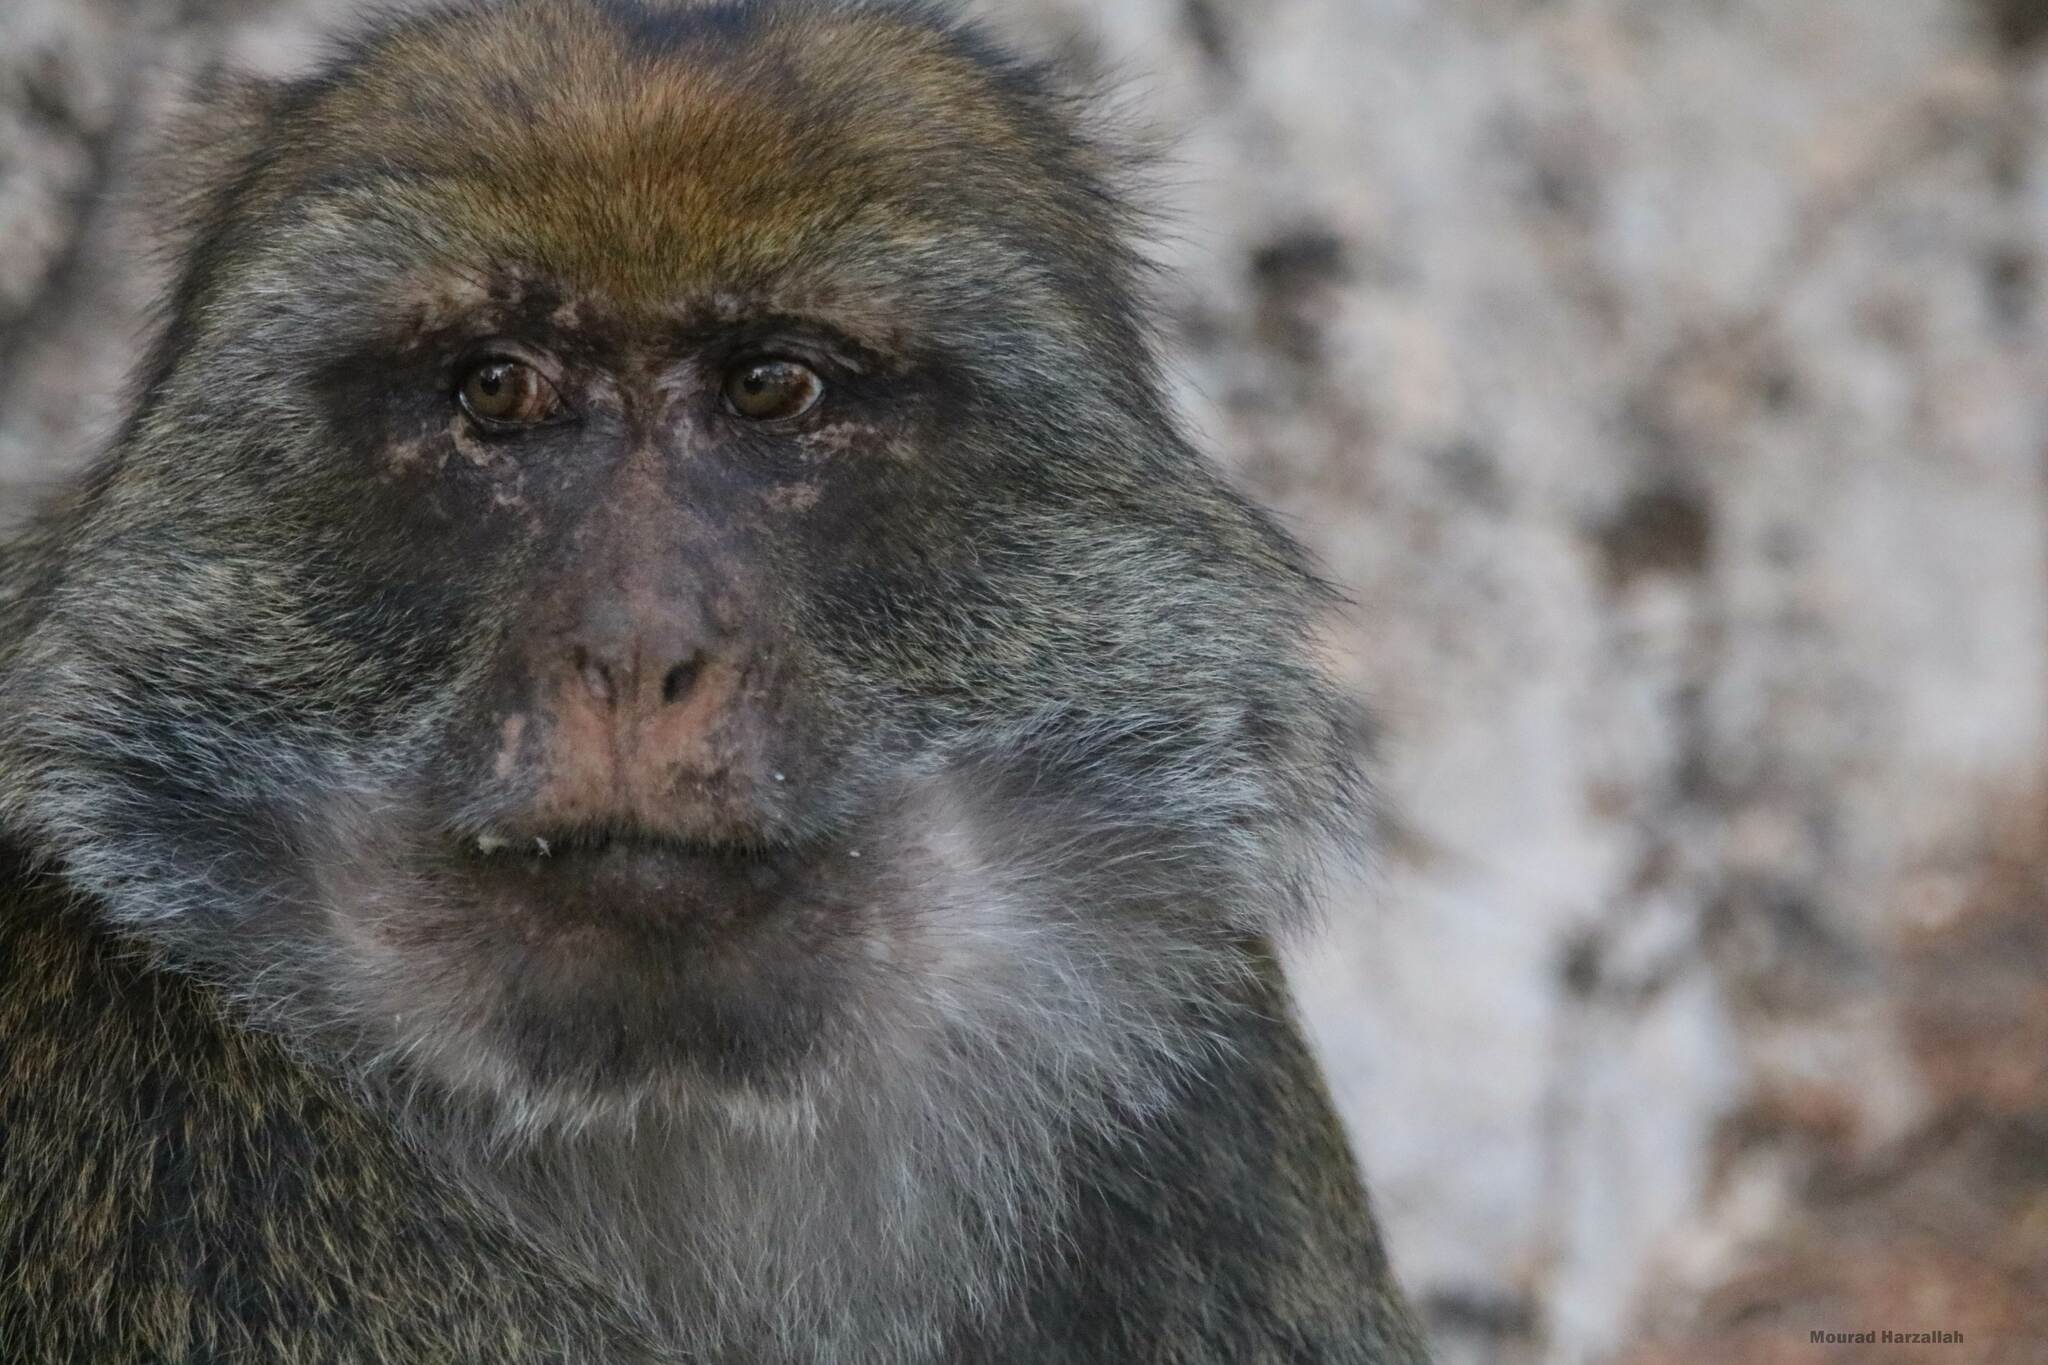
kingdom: Animalia
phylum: Chordata
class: Mammalia
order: Primates
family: Cercopithecidae
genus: Macaca
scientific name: Macaca sylvanus
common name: Barbary macaque
